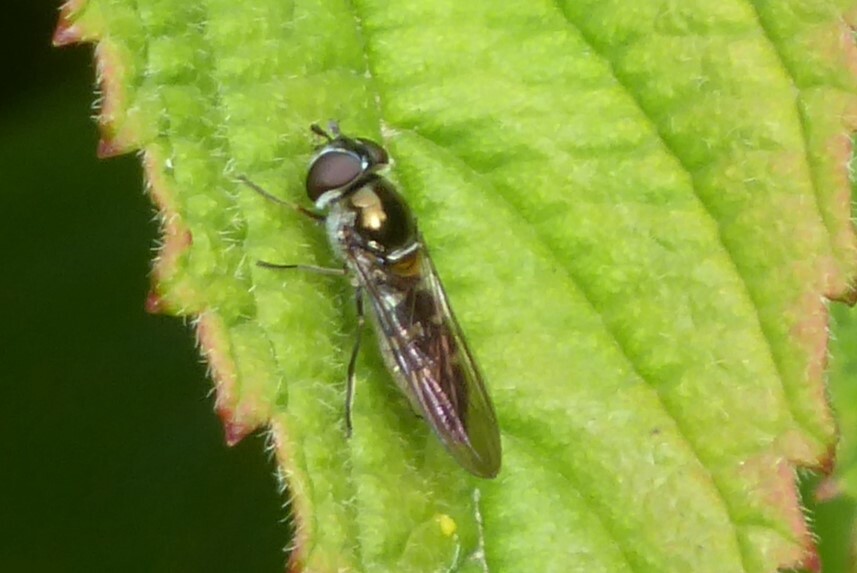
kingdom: Animalia
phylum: Arthropoda
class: Insecta
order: Diptera
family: Syrphidae
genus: Melangyna
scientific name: Melangyna novaezelandiae
